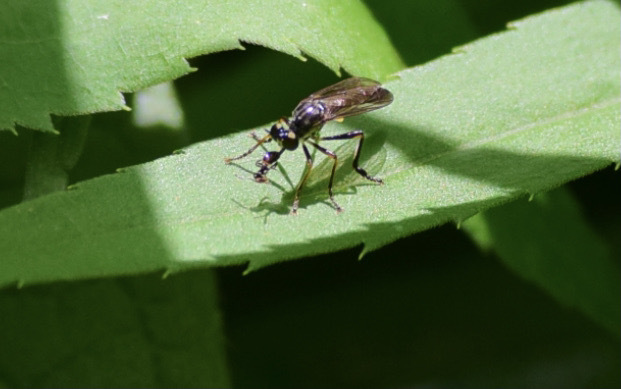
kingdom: Animalia
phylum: Arthropoda
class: Insecta
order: Diptera
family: Asilidae
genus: Dioctria
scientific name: Dioctria hyalipennis
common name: Stripe-legged robberfly
